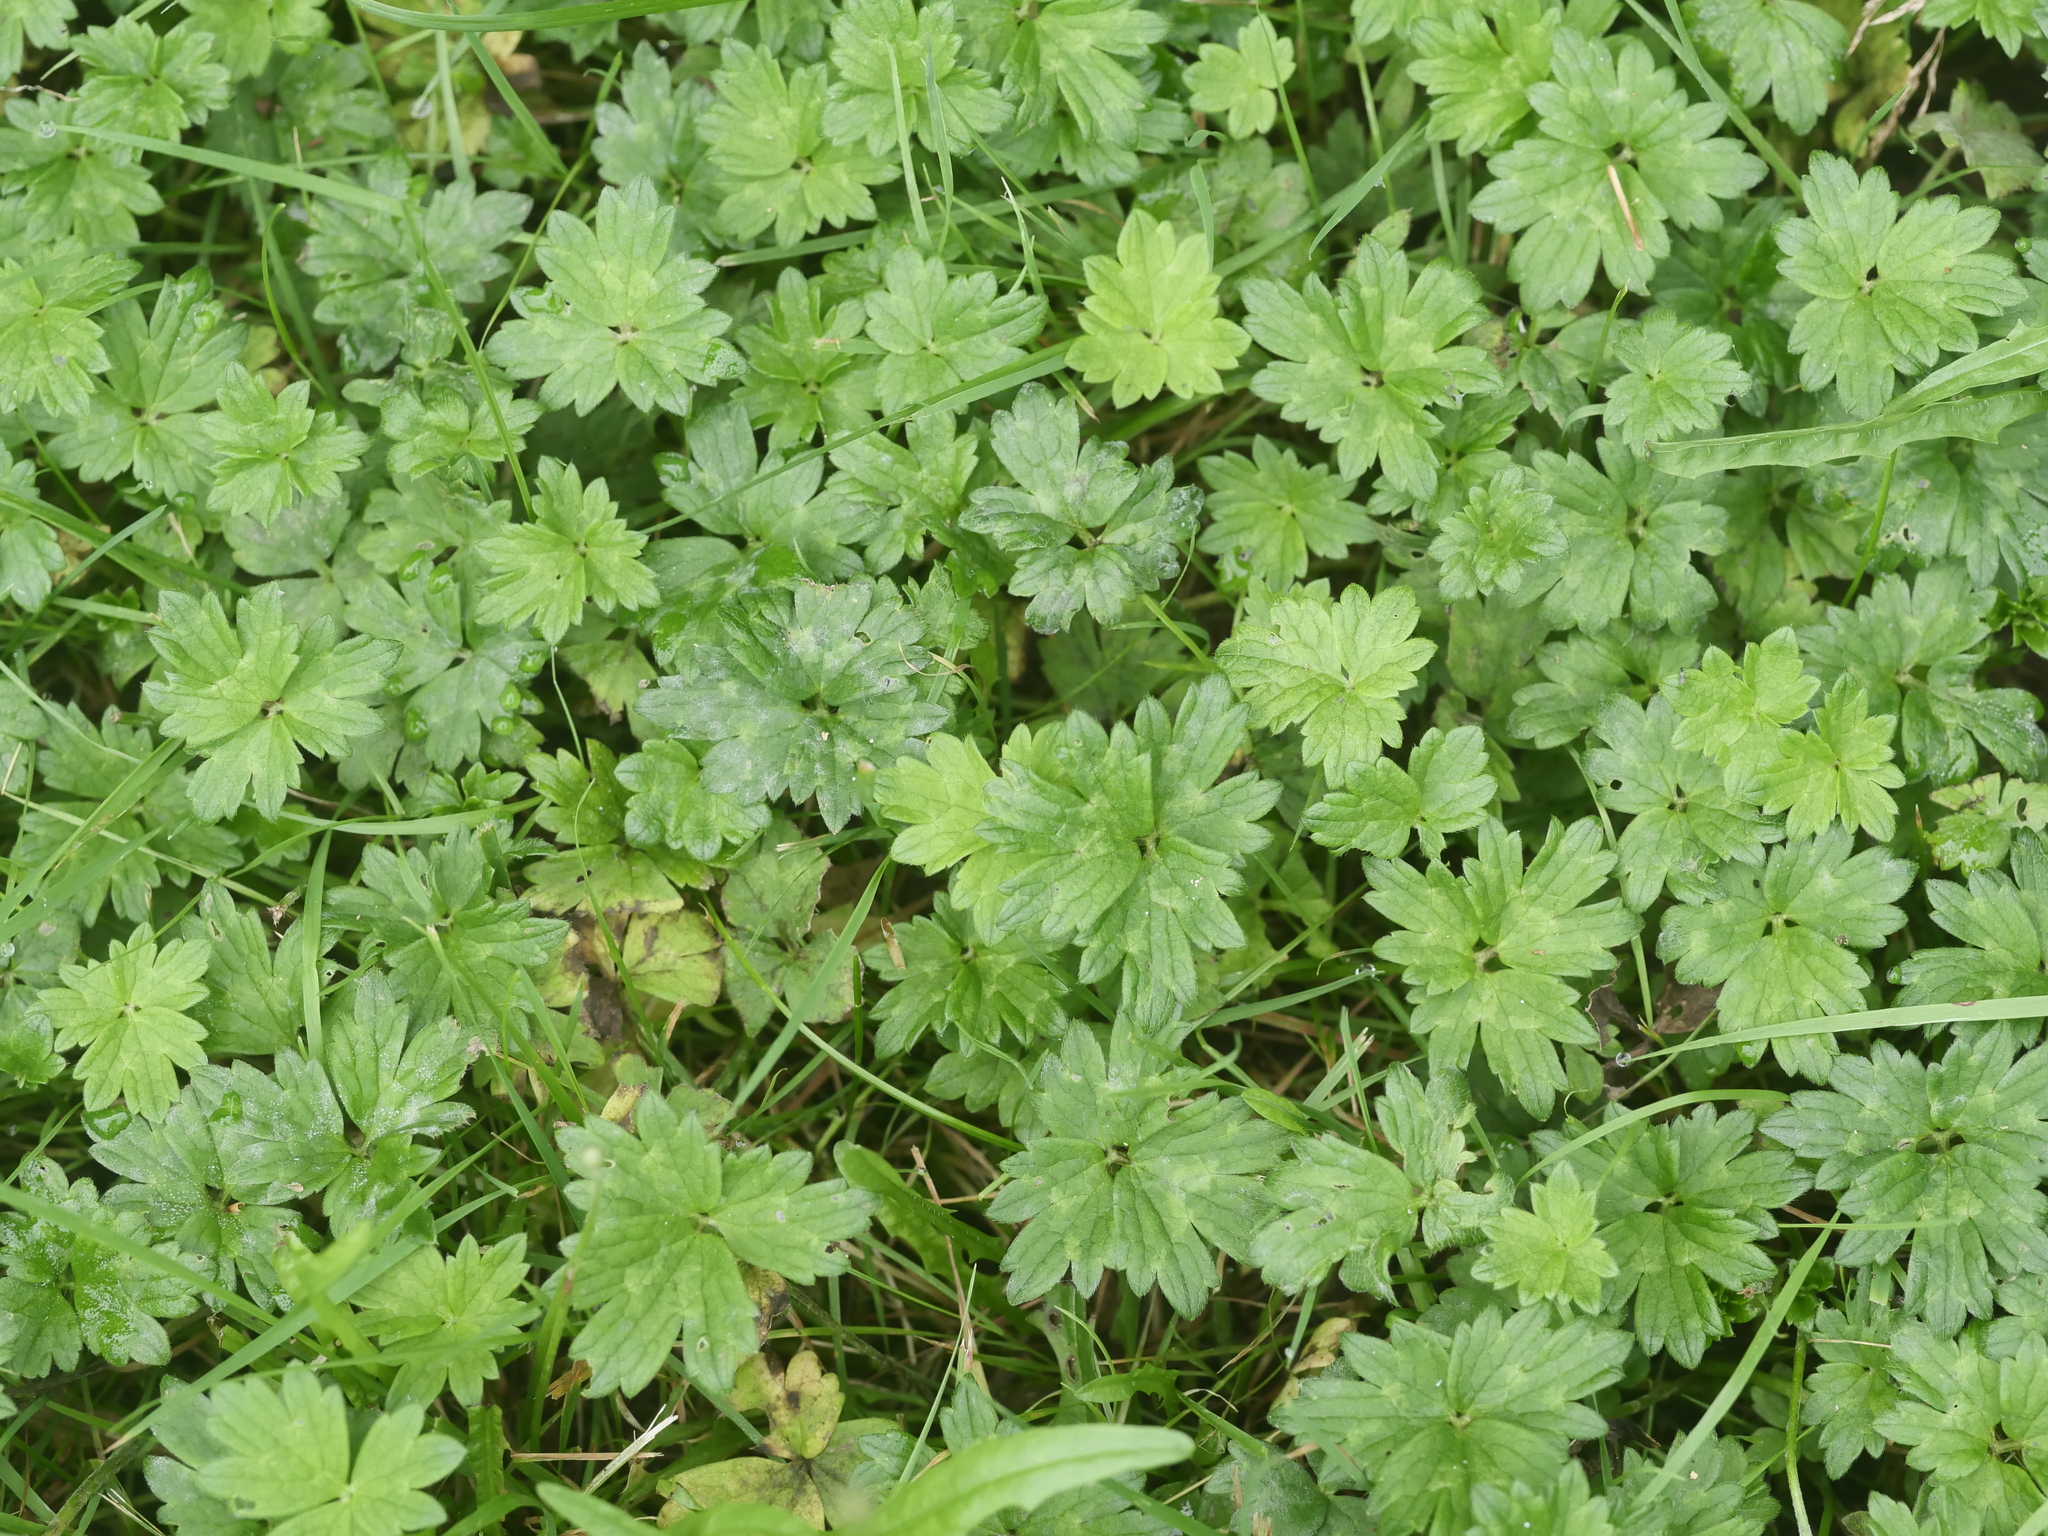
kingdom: Plantae
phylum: Tracheophyta
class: Magnoliopsida
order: Ranunculales
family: Ranunculaceae
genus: Ranunculus
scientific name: Ranunculus repens
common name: Creeping buttercup
